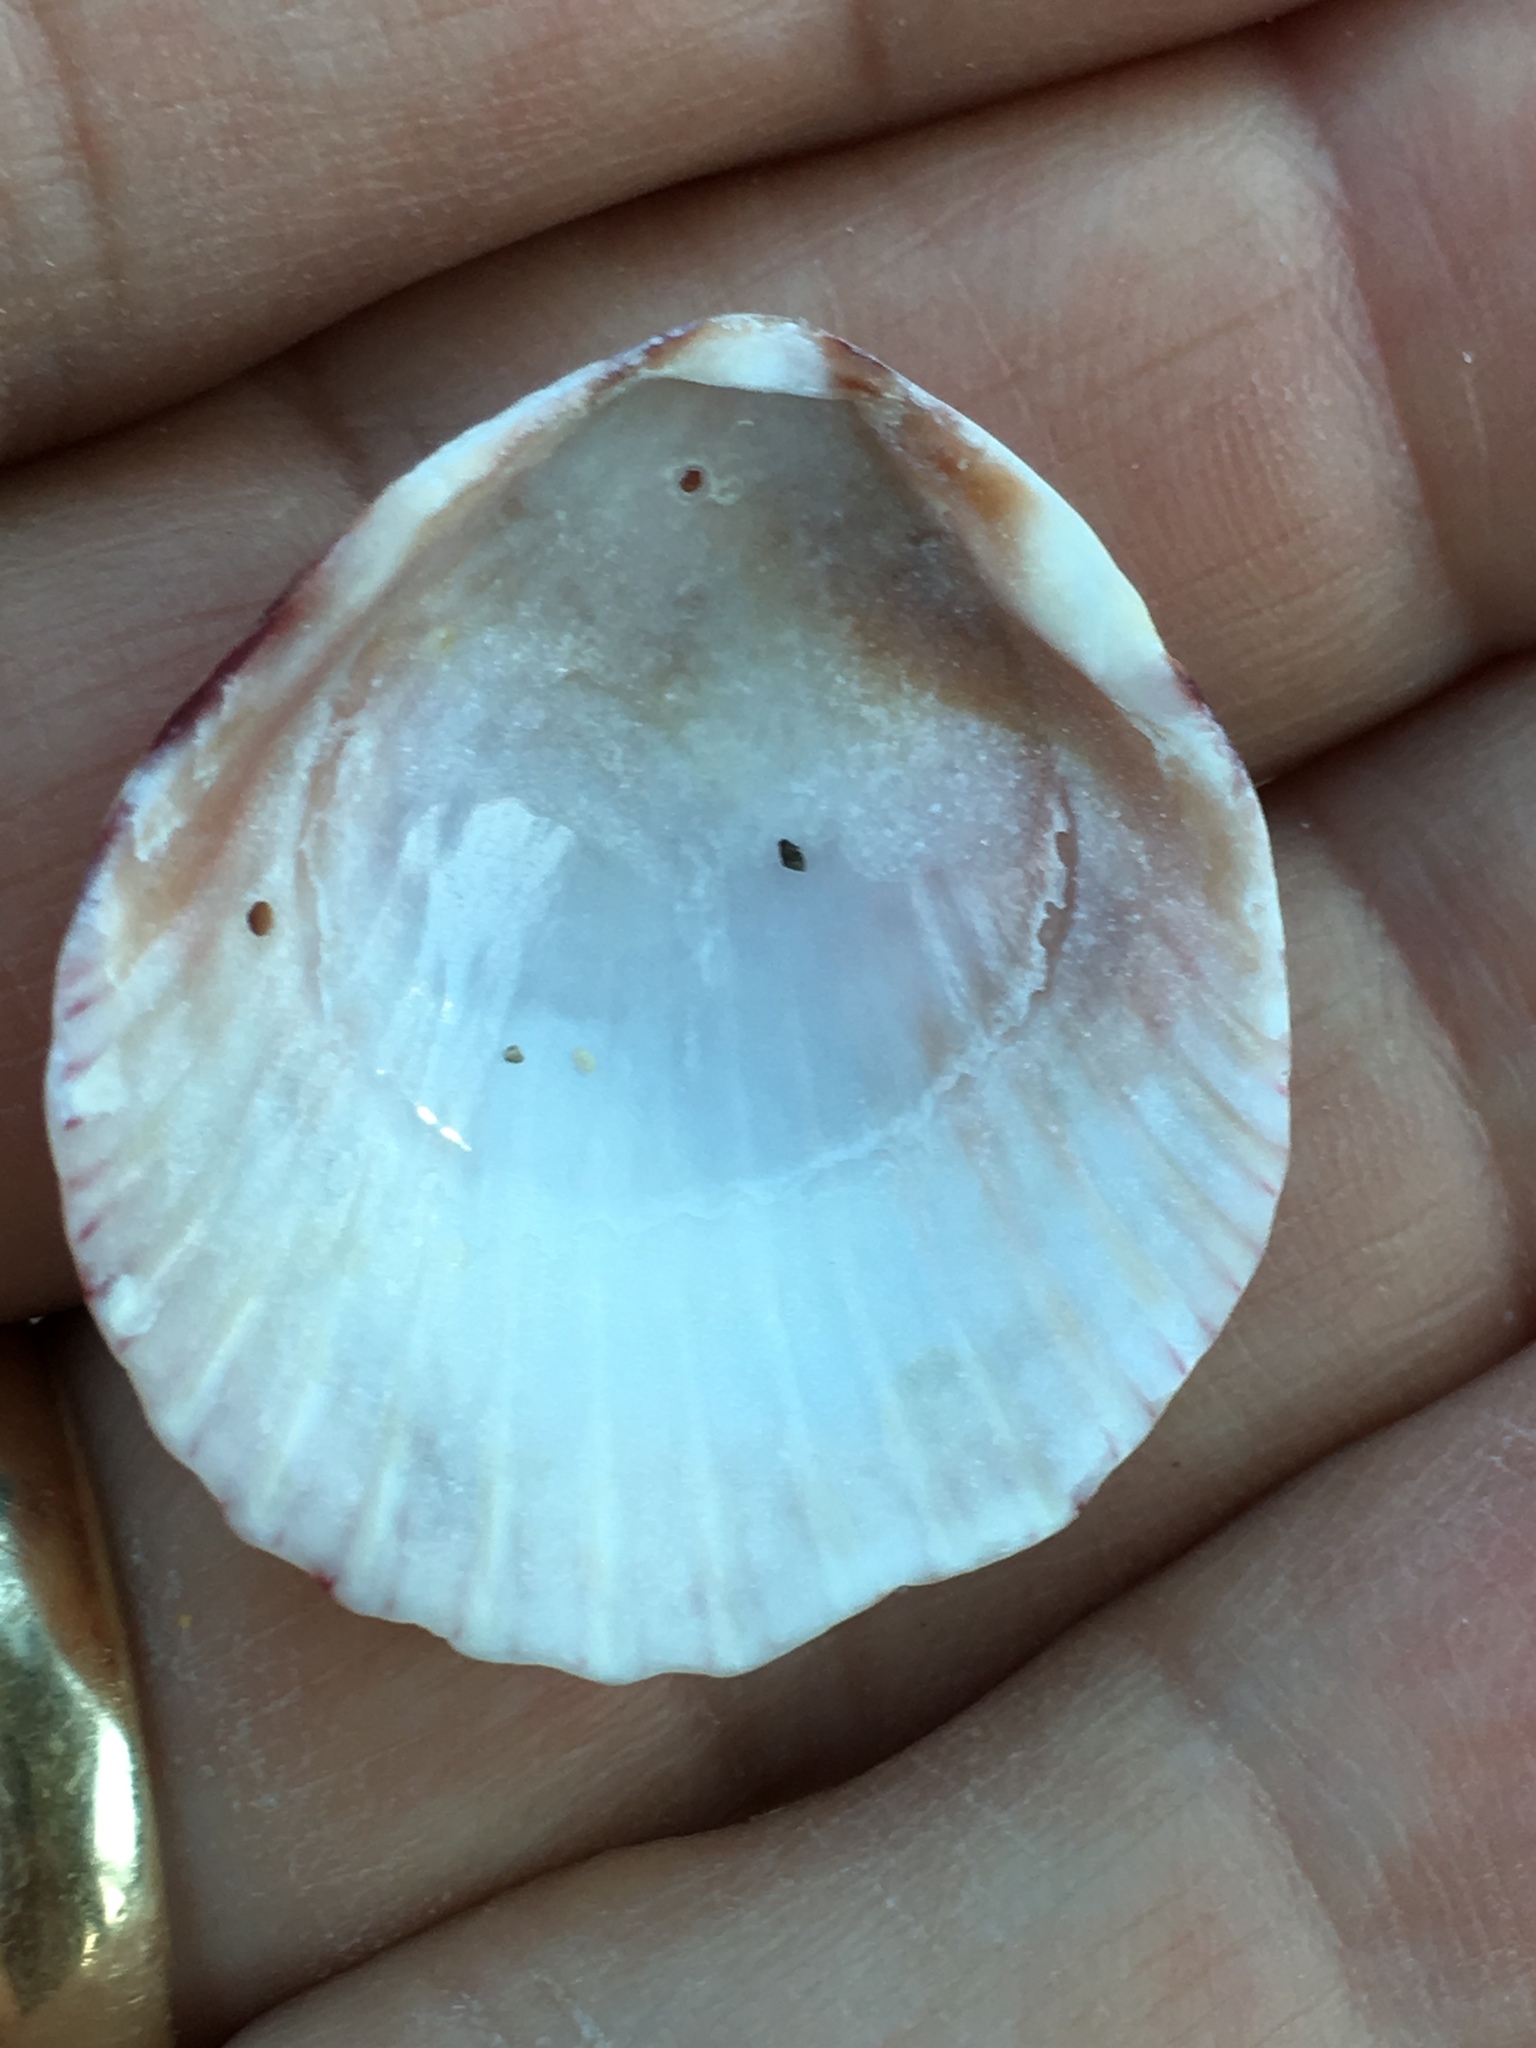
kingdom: Animalia
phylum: Mollusca
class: Bivalvia
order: Pectinida
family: Pectinidae
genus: Argopecten
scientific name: Argopecten gibbus
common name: Atlantic calico scallop
